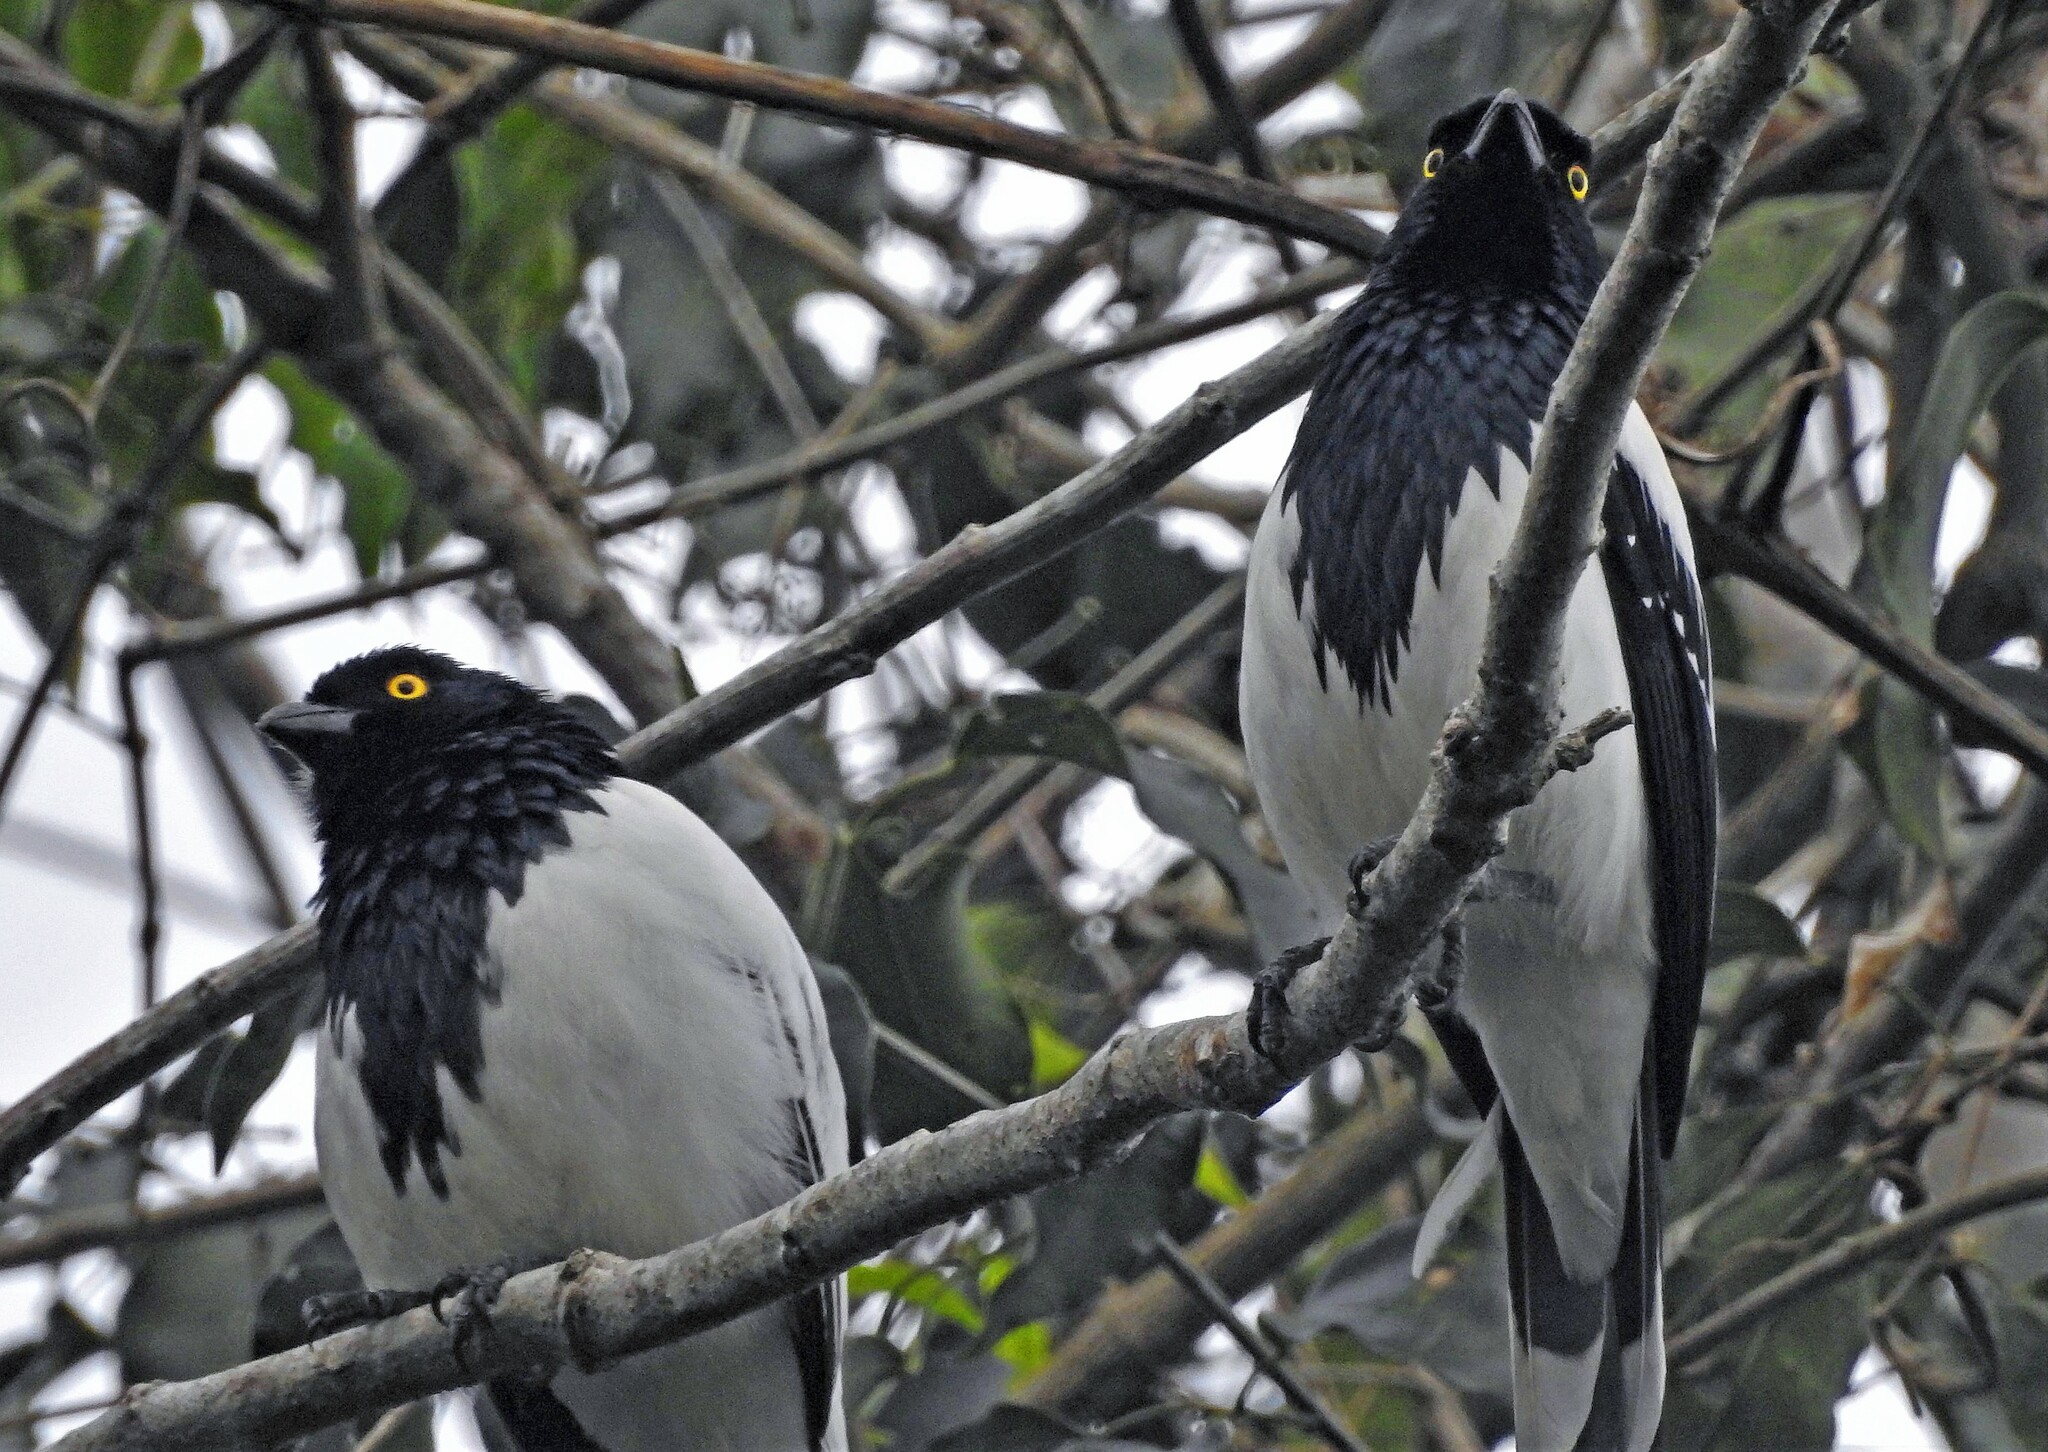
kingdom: Animalia
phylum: Chordata
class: Aves
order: Passeriformes
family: Thraupidae
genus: Cissopis
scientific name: Cissopis leverianus
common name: Magpie tanager
